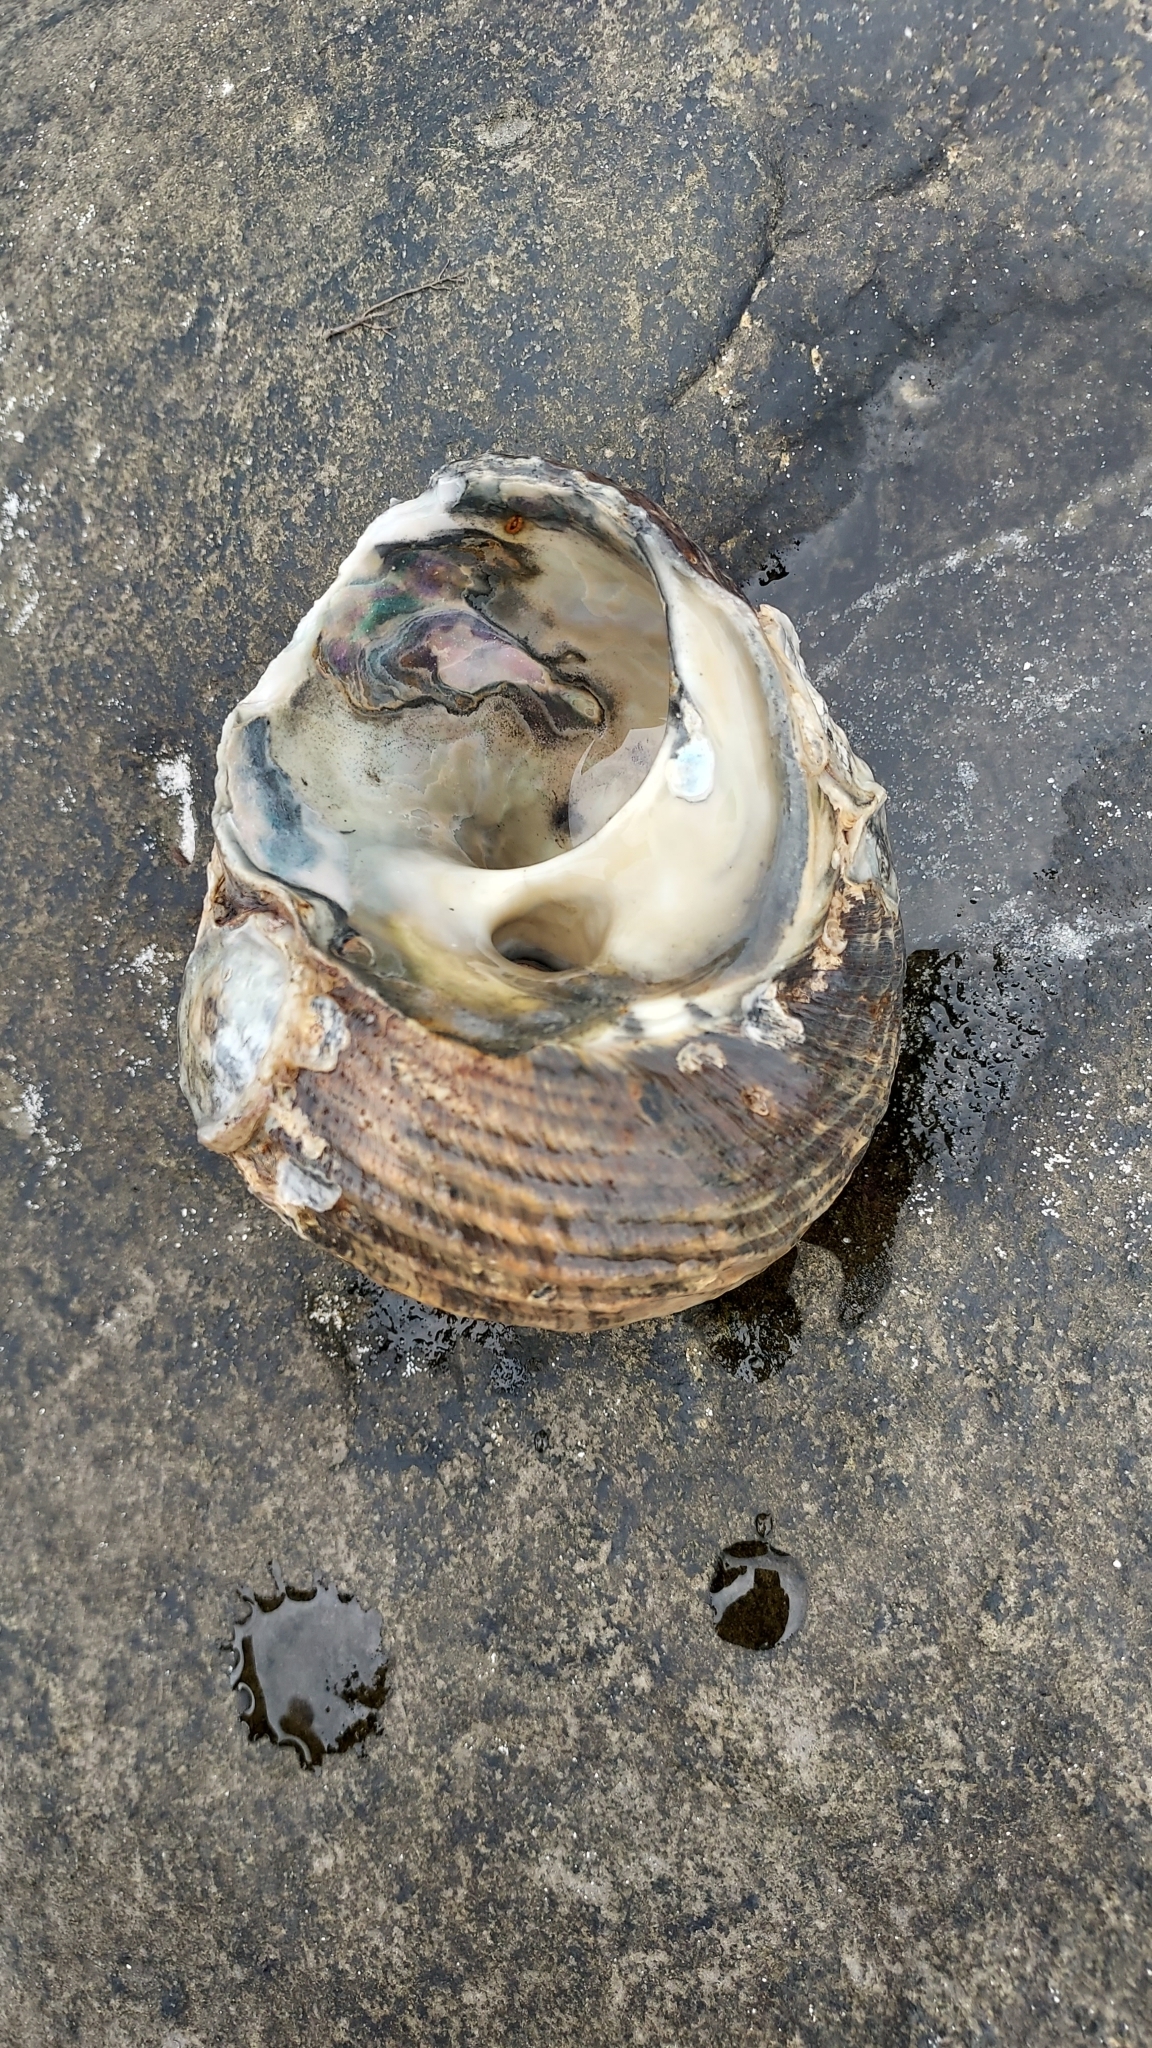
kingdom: Animalia
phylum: Mollusca
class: Gastropoda
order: Trochida
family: Turbinidae
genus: Lunella
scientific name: Lunella torquata
